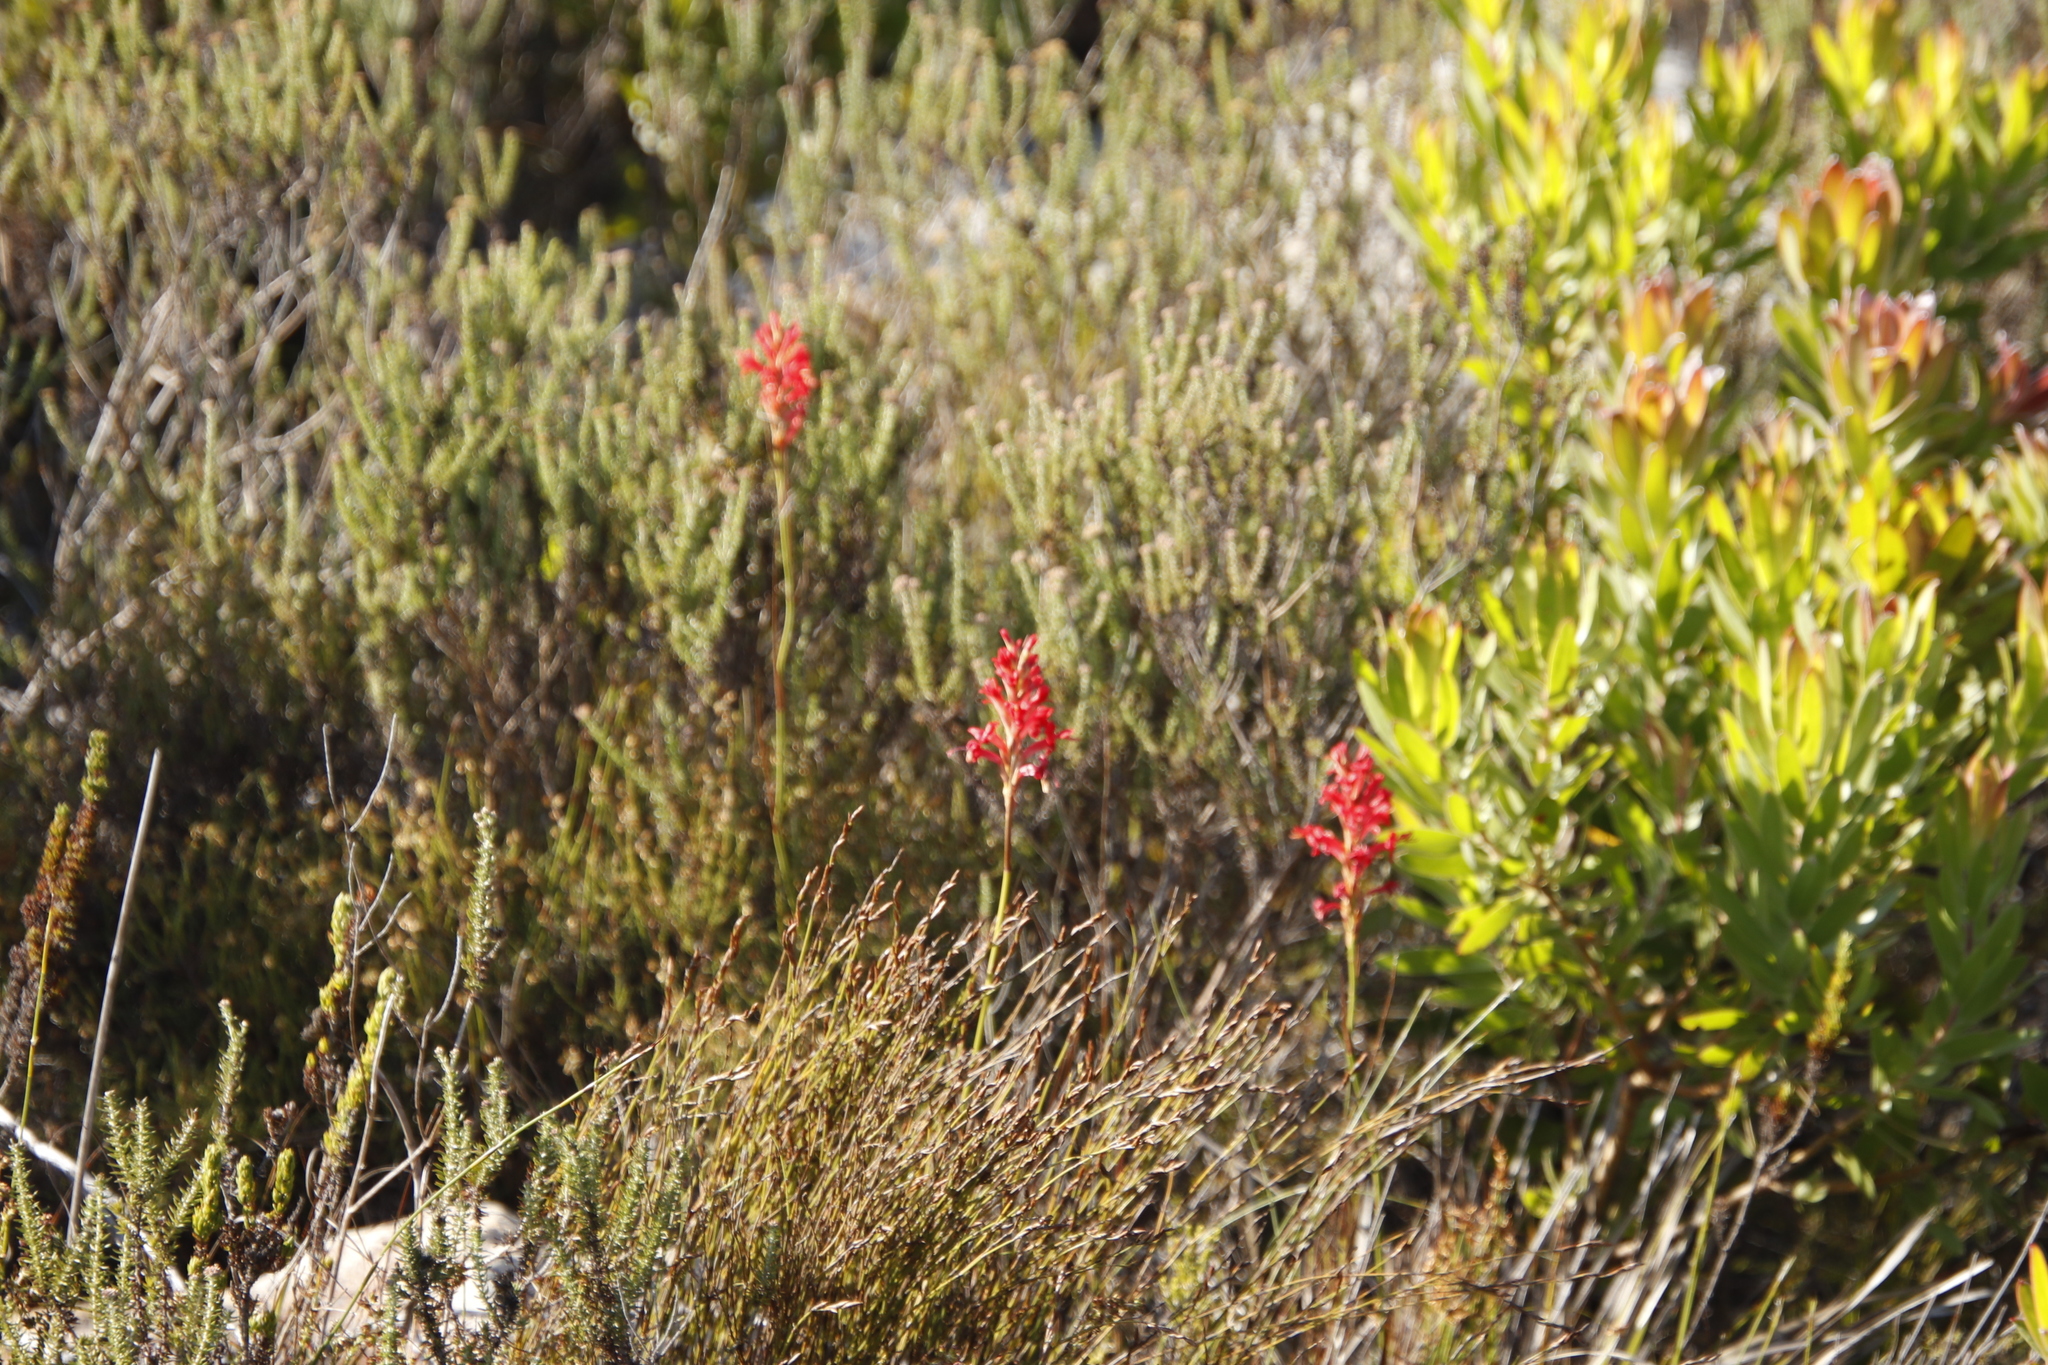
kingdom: Plantae
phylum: Tracheophyta
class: Liliopsida
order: Asparagales
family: Iridaceae
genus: Tritoniopsis
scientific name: Tritoniopsis triticea
